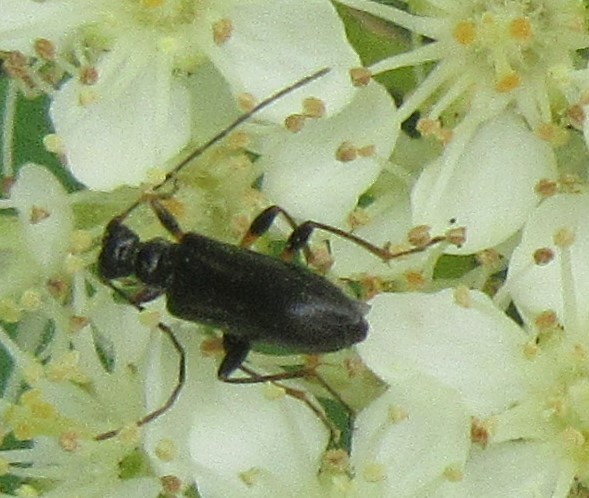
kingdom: Animalia
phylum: Arthropoda
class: Insecta
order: Coleoptera
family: Cerambycidae
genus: Pidonia
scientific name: Pidonia ruficollis
